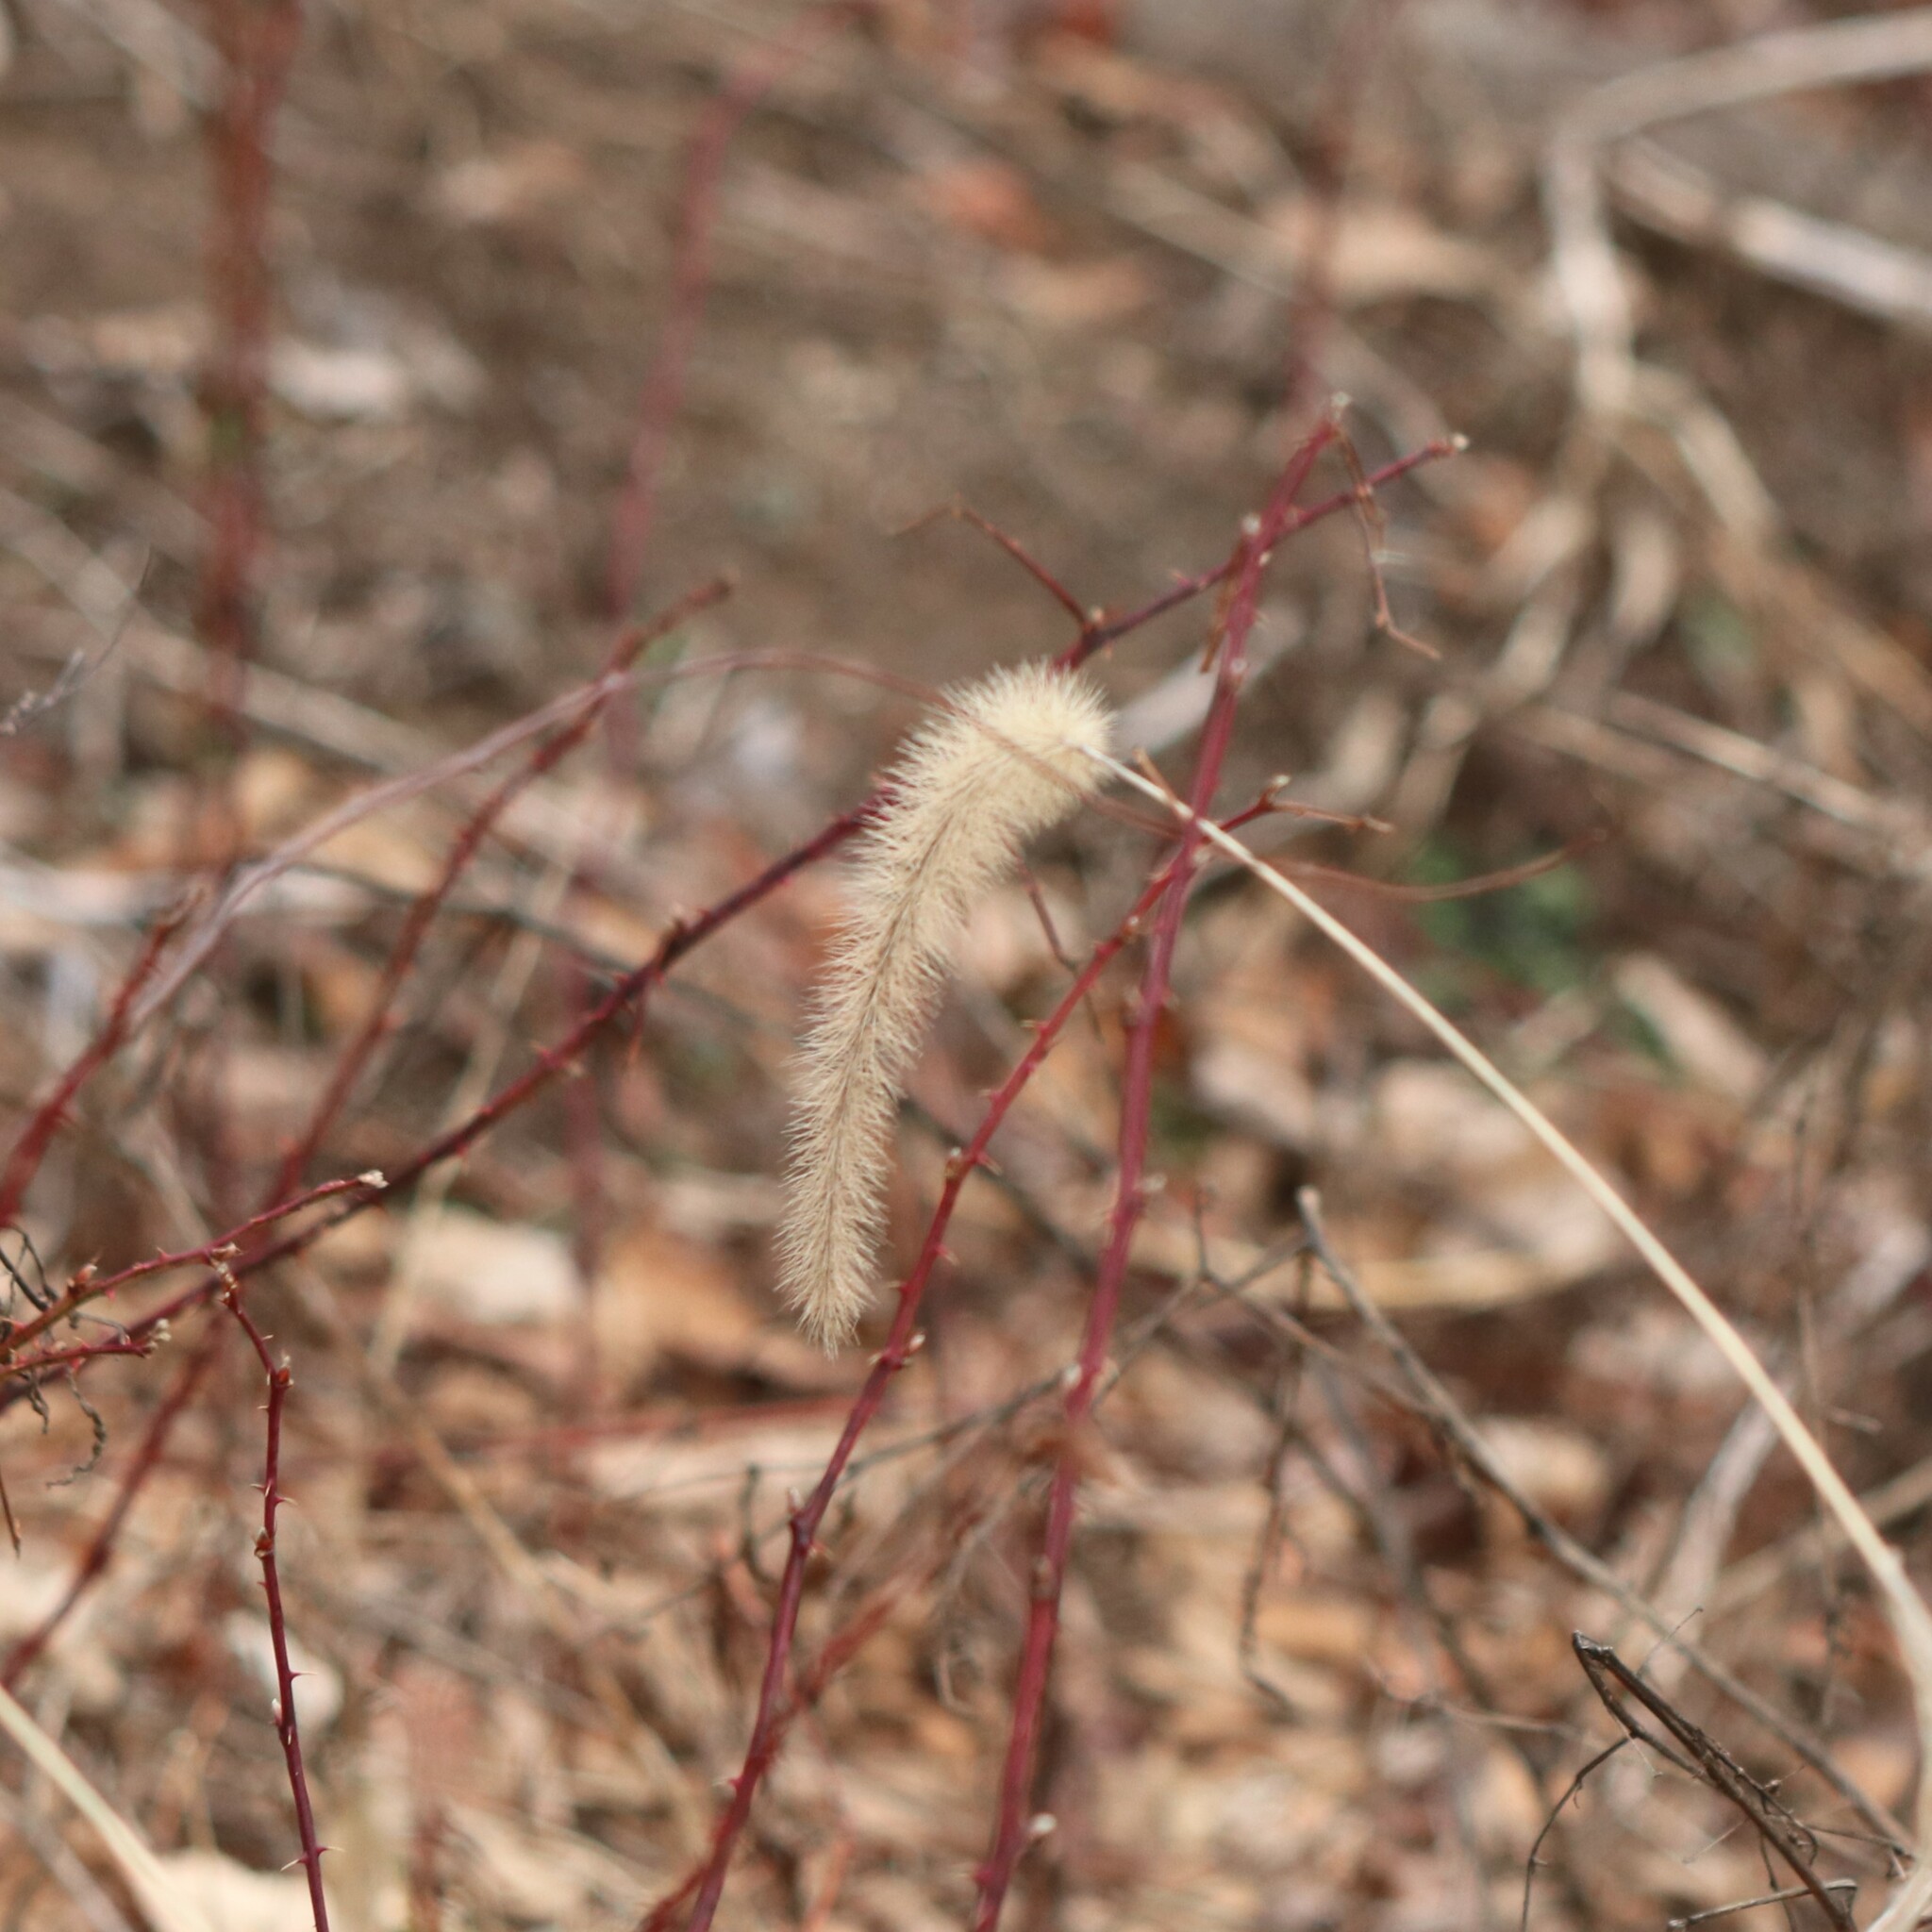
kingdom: Plantae
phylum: Tracheophyta
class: Liliopsida
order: Poales
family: Poaceae
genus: Setaria
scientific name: Setaria faberi
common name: Nodding bristle-grass
